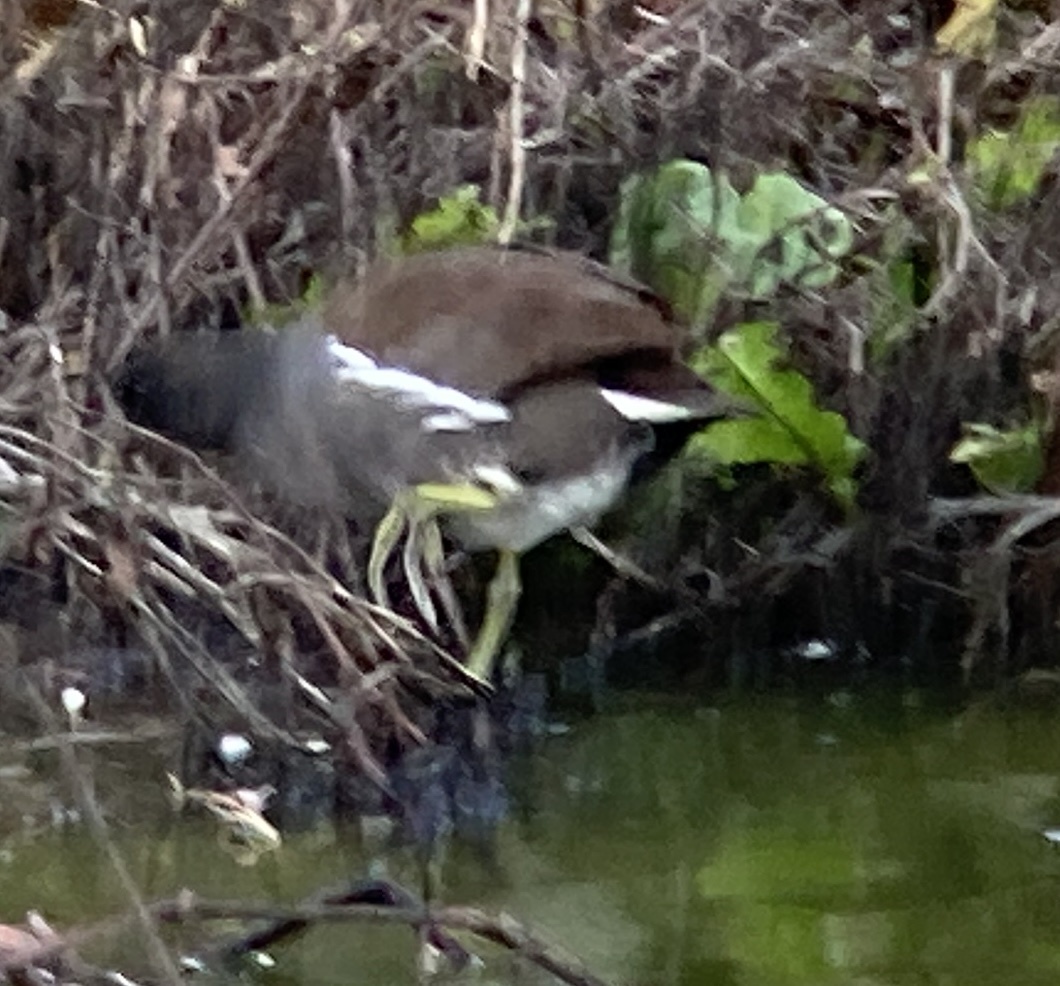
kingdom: Animalia
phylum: Chordata
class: Aves
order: Gruiformes
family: Rallidae
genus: Gallinula
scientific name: Gallinula chloropus
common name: Common moorhen
